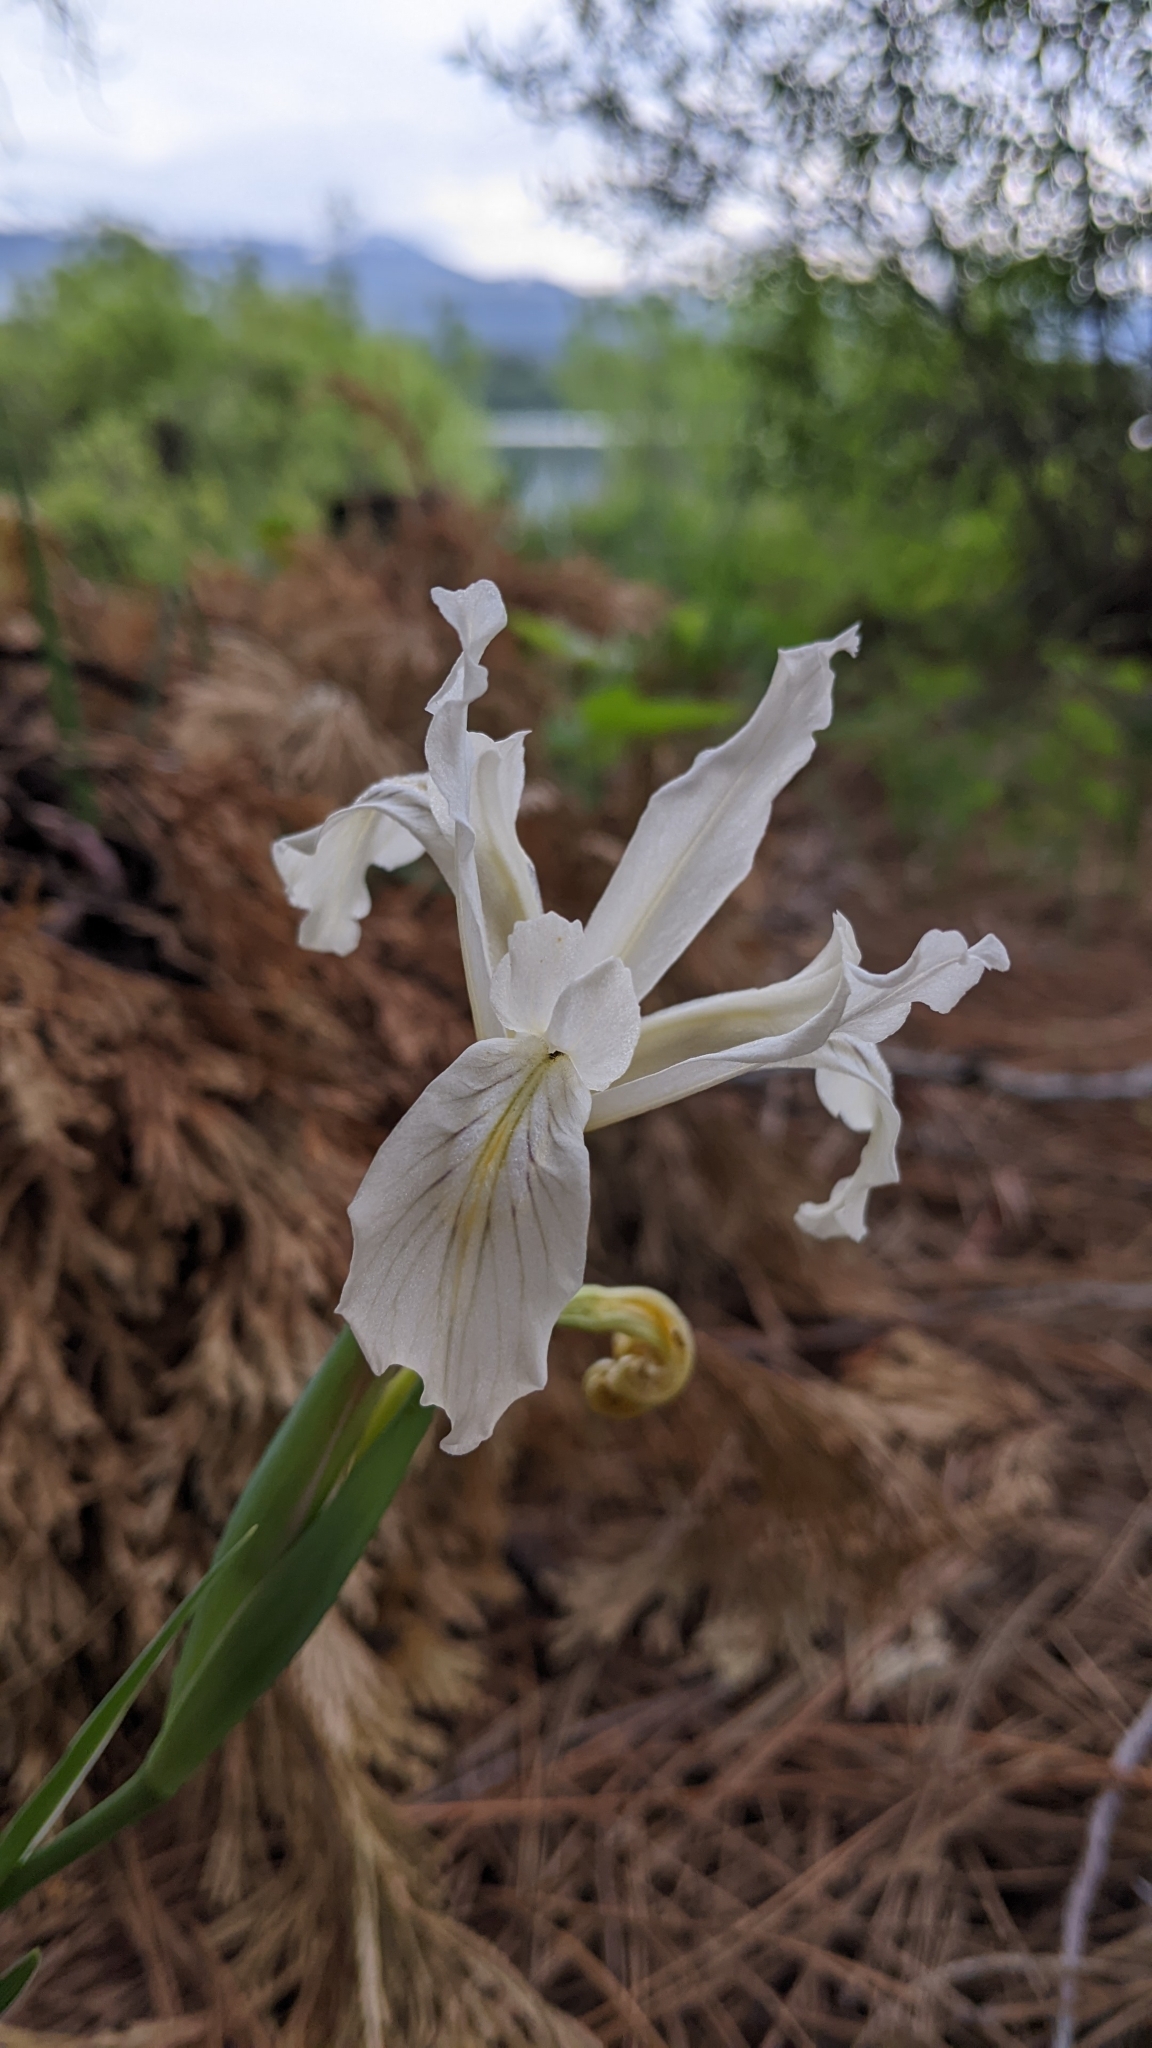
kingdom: Plantae
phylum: Tracheophyta
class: Liliopsida
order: Asparagales
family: Iridaceae
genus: Iris
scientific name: Iris tenuissima
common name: Long-tube iris
